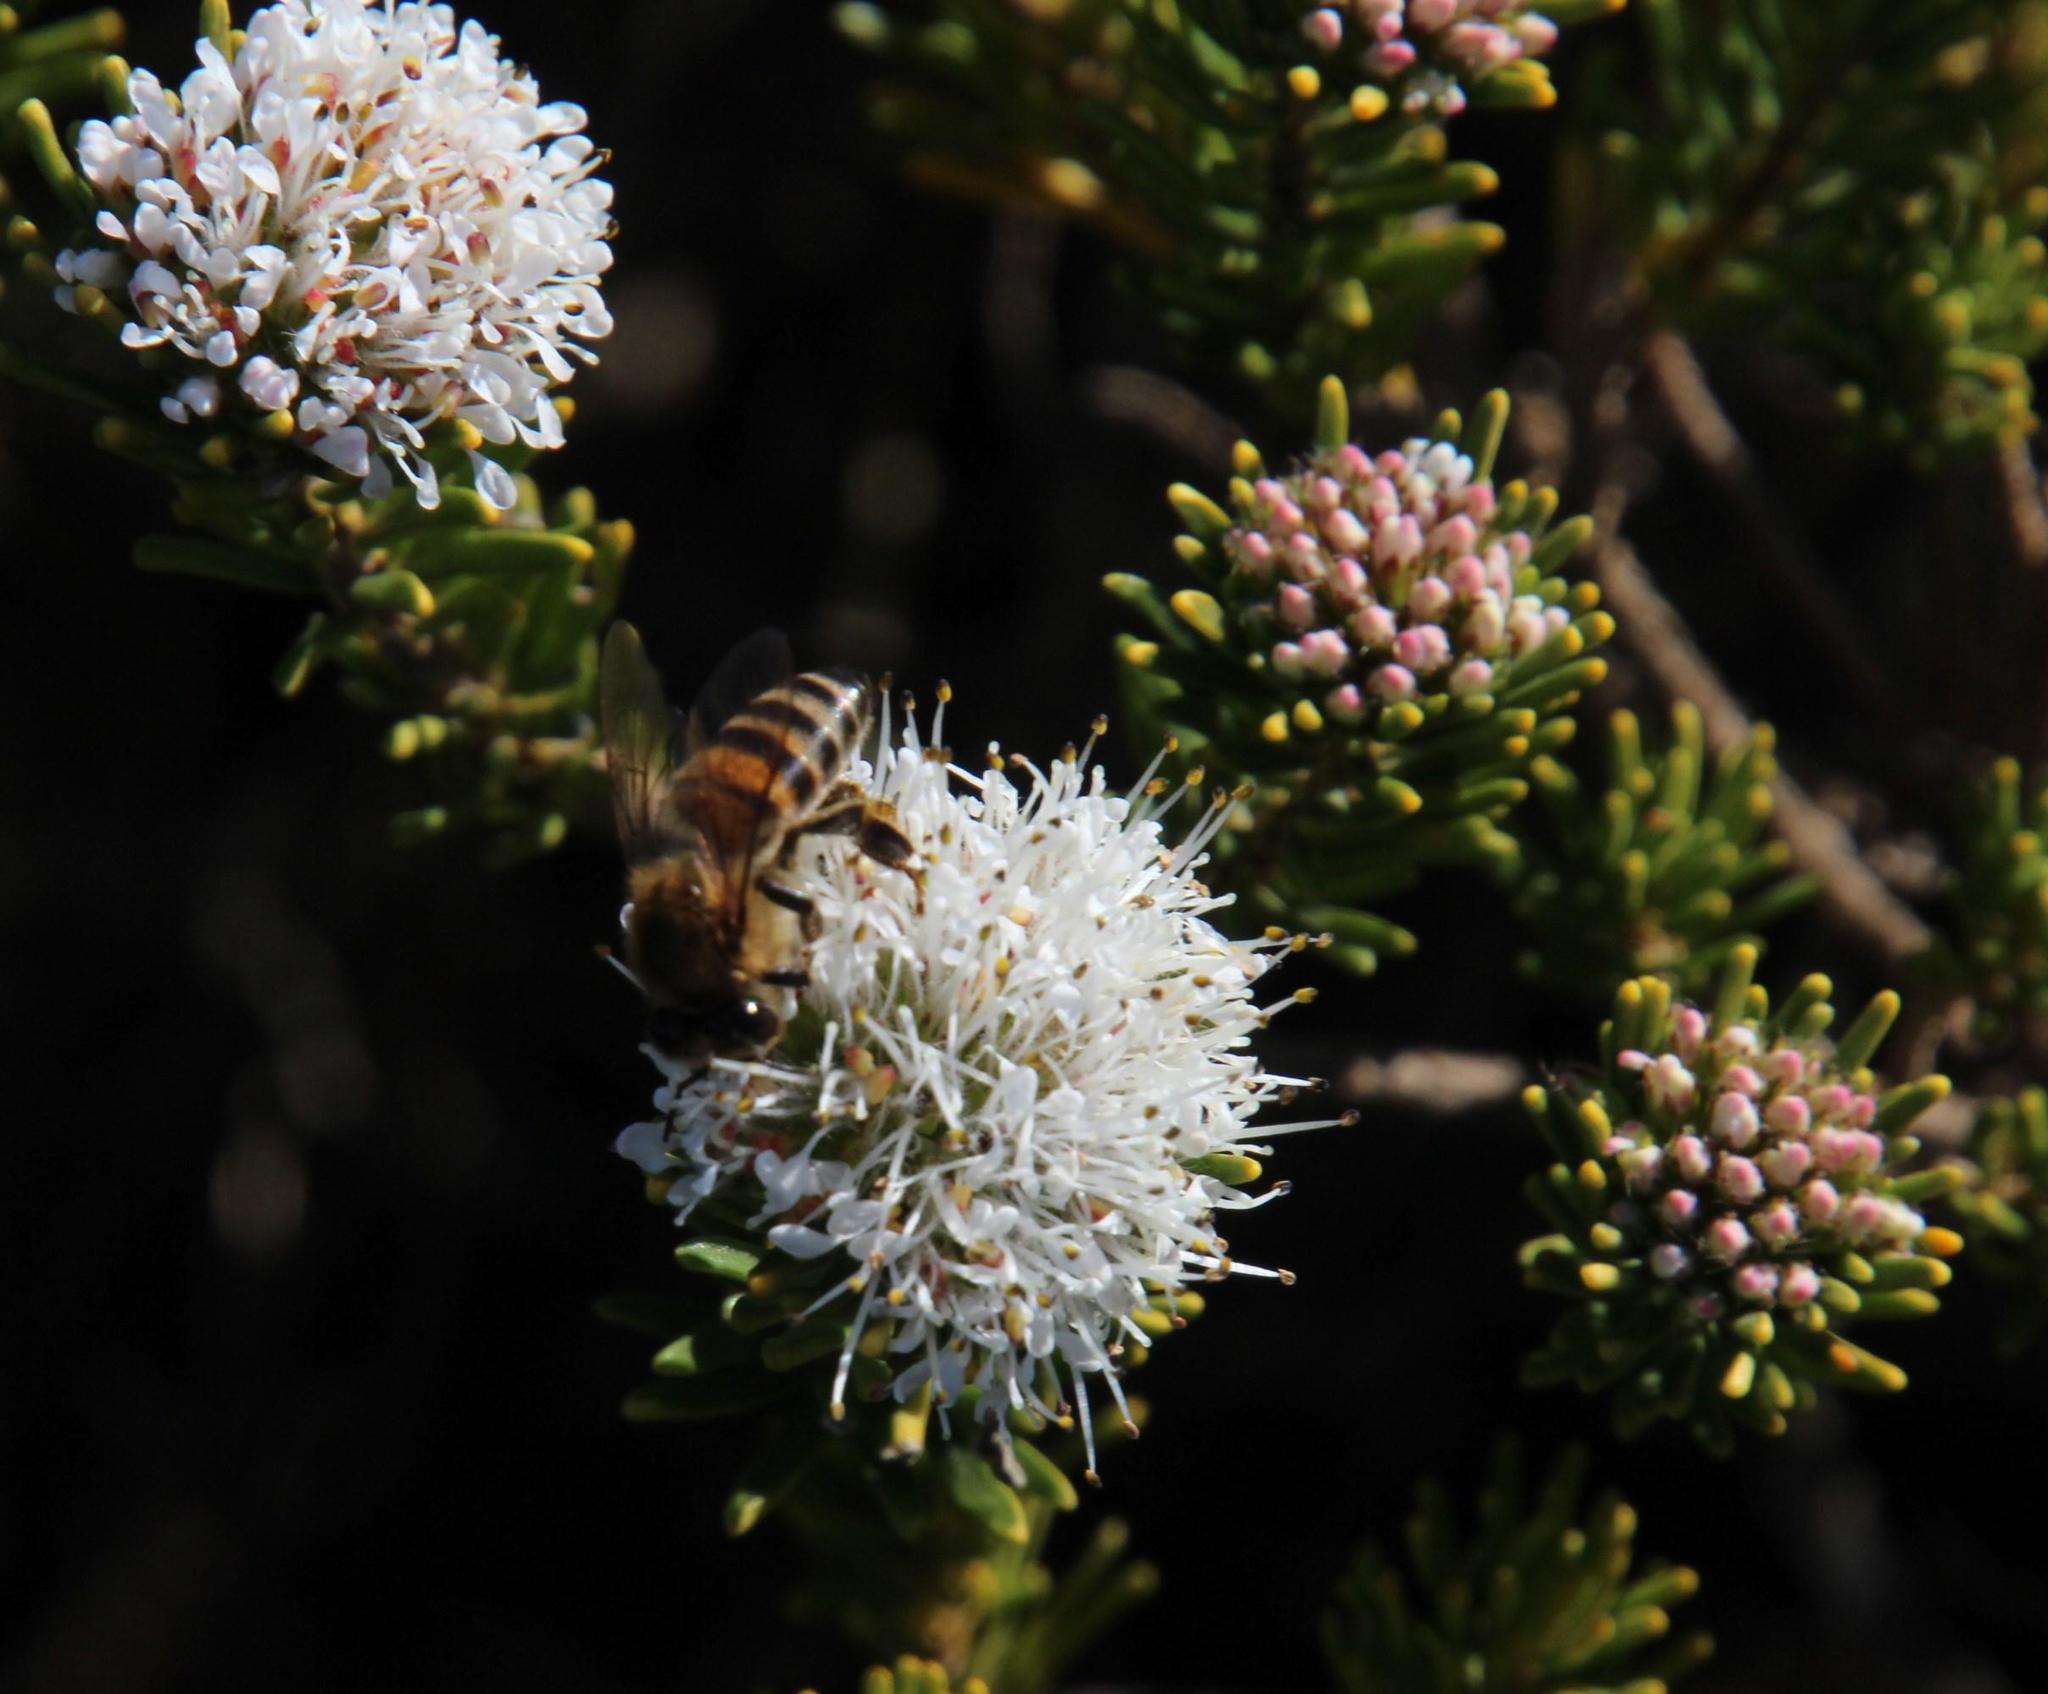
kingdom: Animalia
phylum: Arthropoda
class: Insecta
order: Hymenoptera
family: Apidae
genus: Apis
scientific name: Apis mellifera
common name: Honey bee
